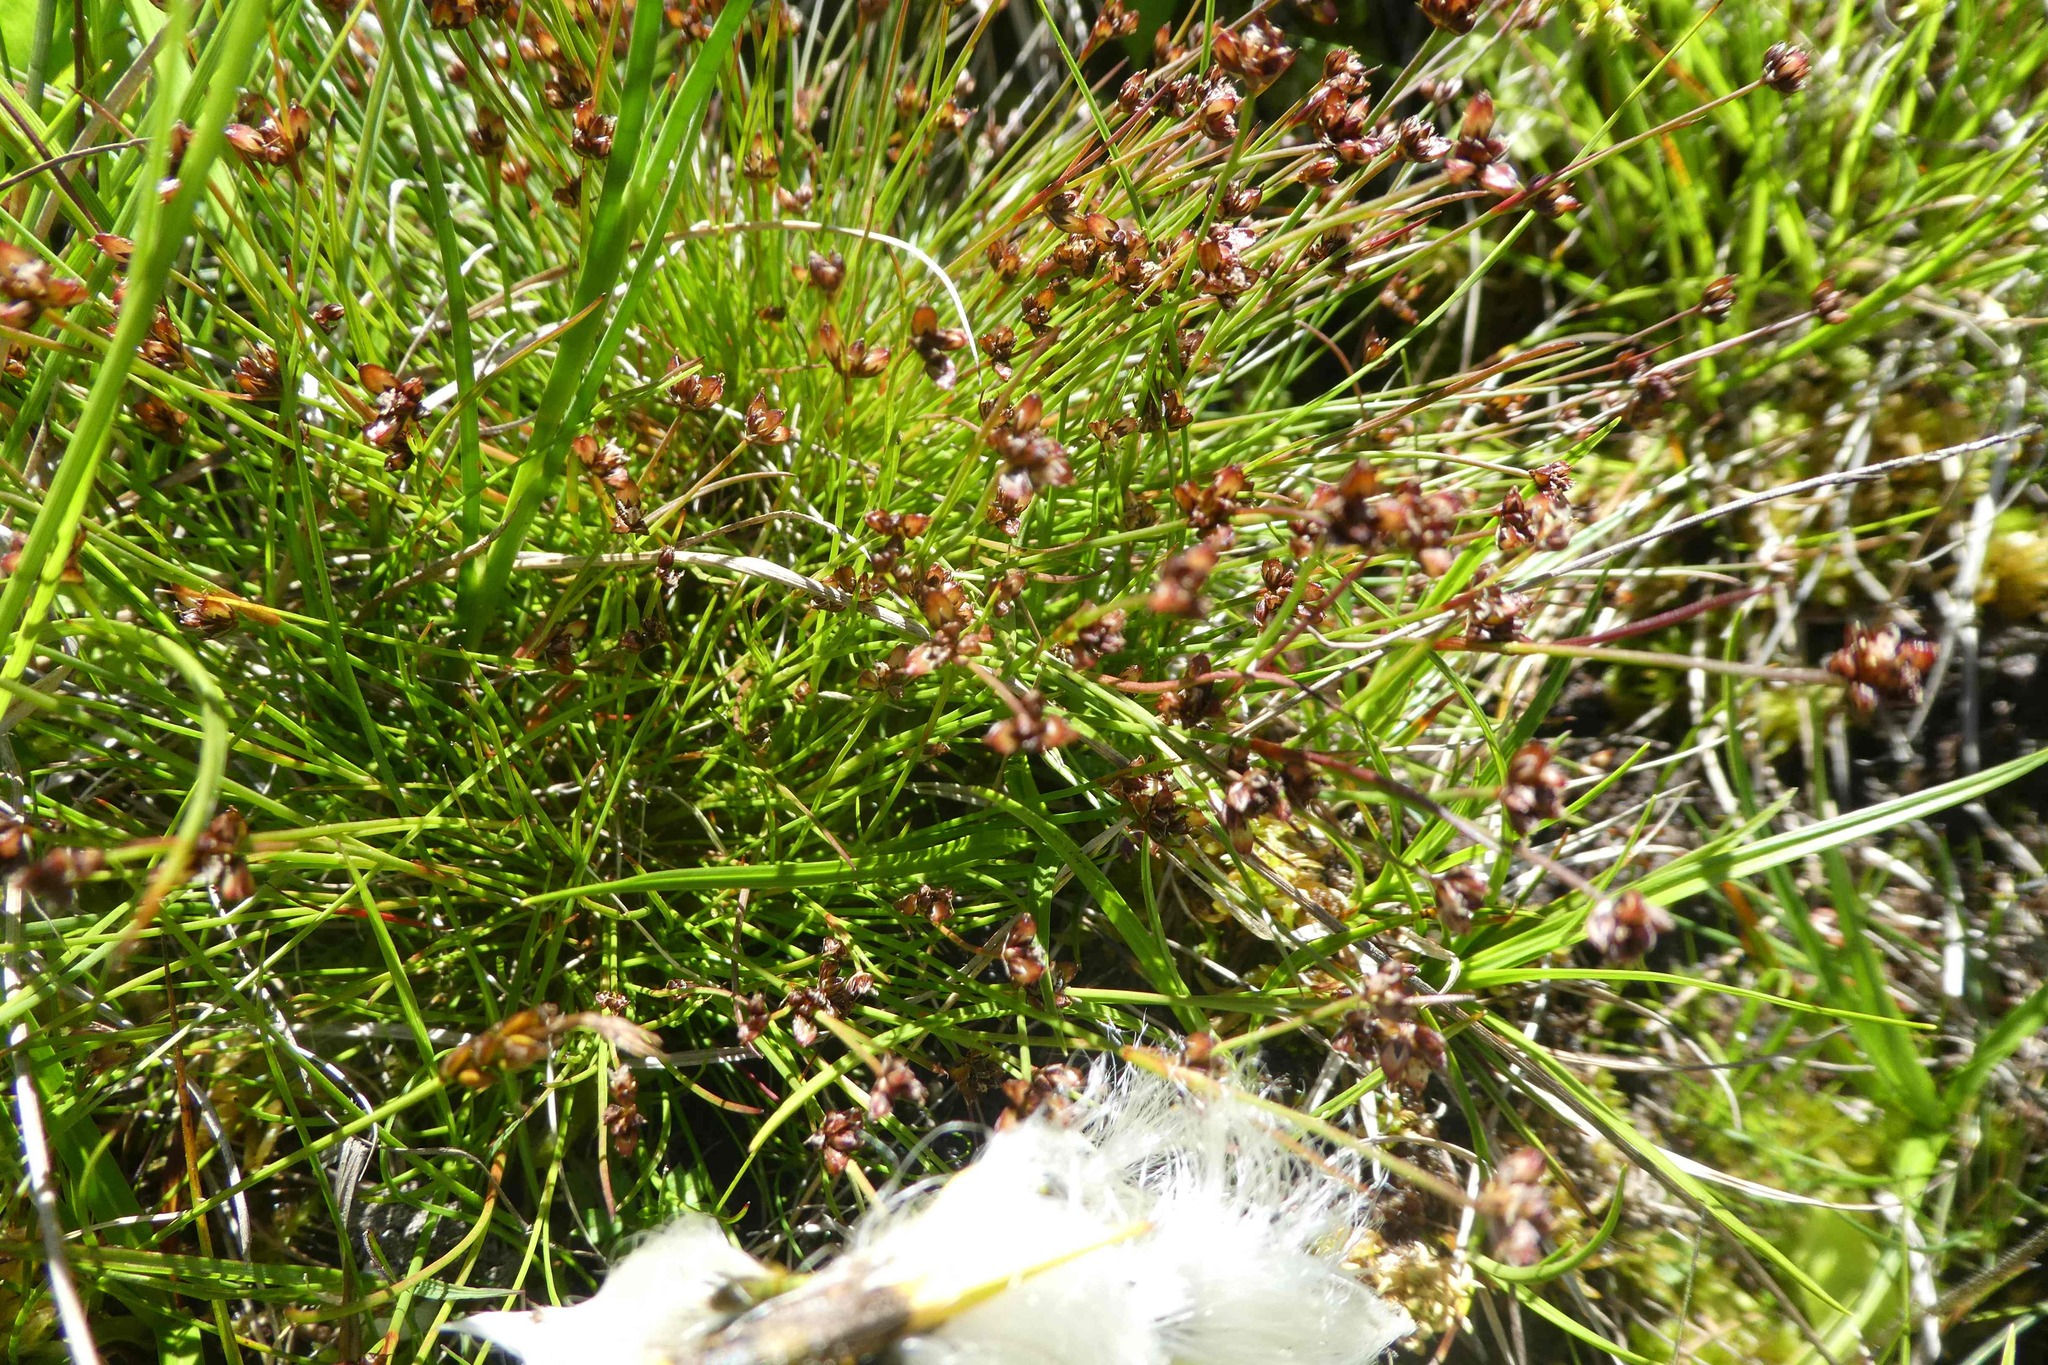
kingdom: Plantae
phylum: Tracheophyta
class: Liliopsida
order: Poales
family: Juncaceae
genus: Juncus
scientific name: Juncus bulbosus
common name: Bulbous rush
